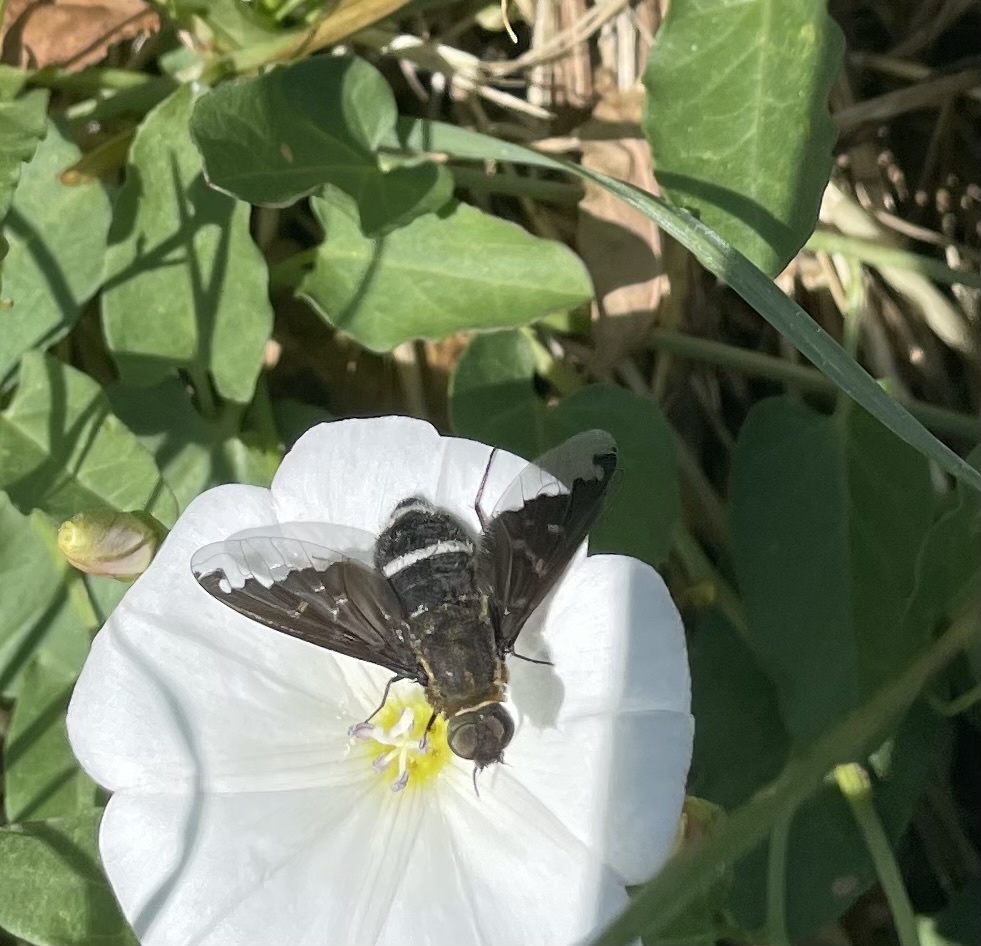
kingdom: Animalia
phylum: Arthropoda
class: Insecta
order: Diptera
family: Bombyliidae
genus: Hemipenthes
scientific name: Hemipenthes velutina
